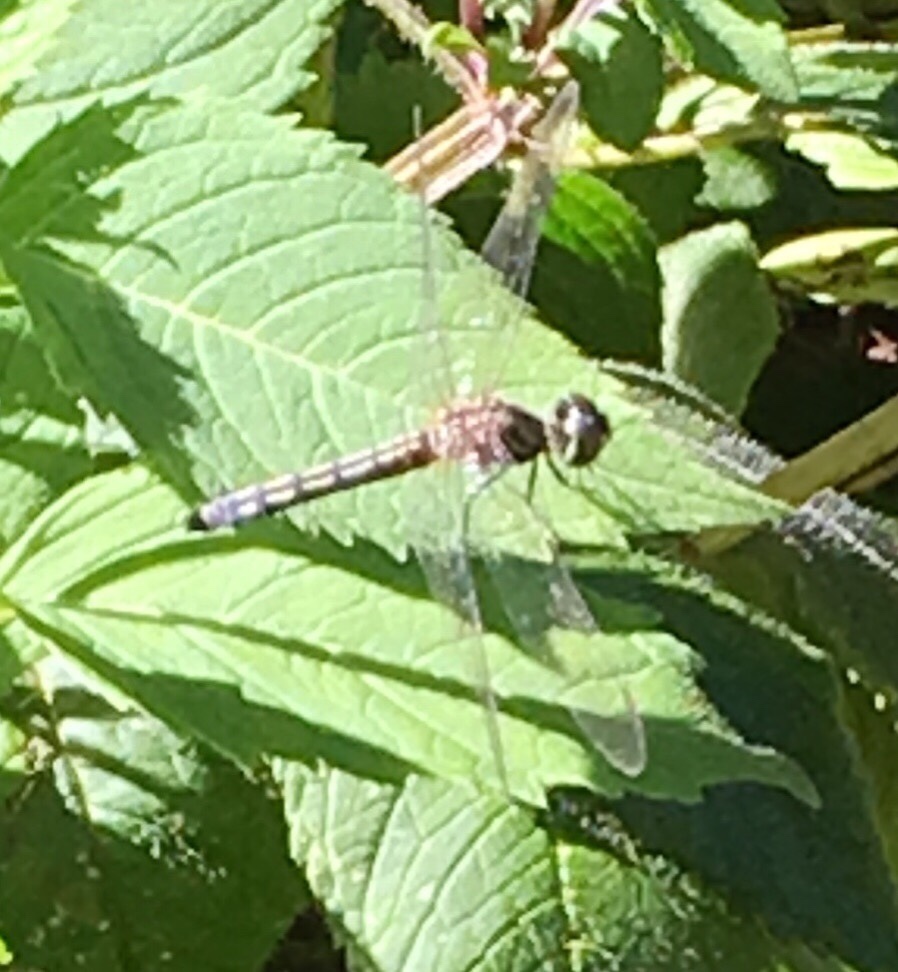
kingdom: Animalia
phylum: Arthropoda
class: Insecta
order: Odonata
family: Libellulidae
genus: Pachydiplax
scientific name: Pachydiplax longipennis
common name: Blue dasher
